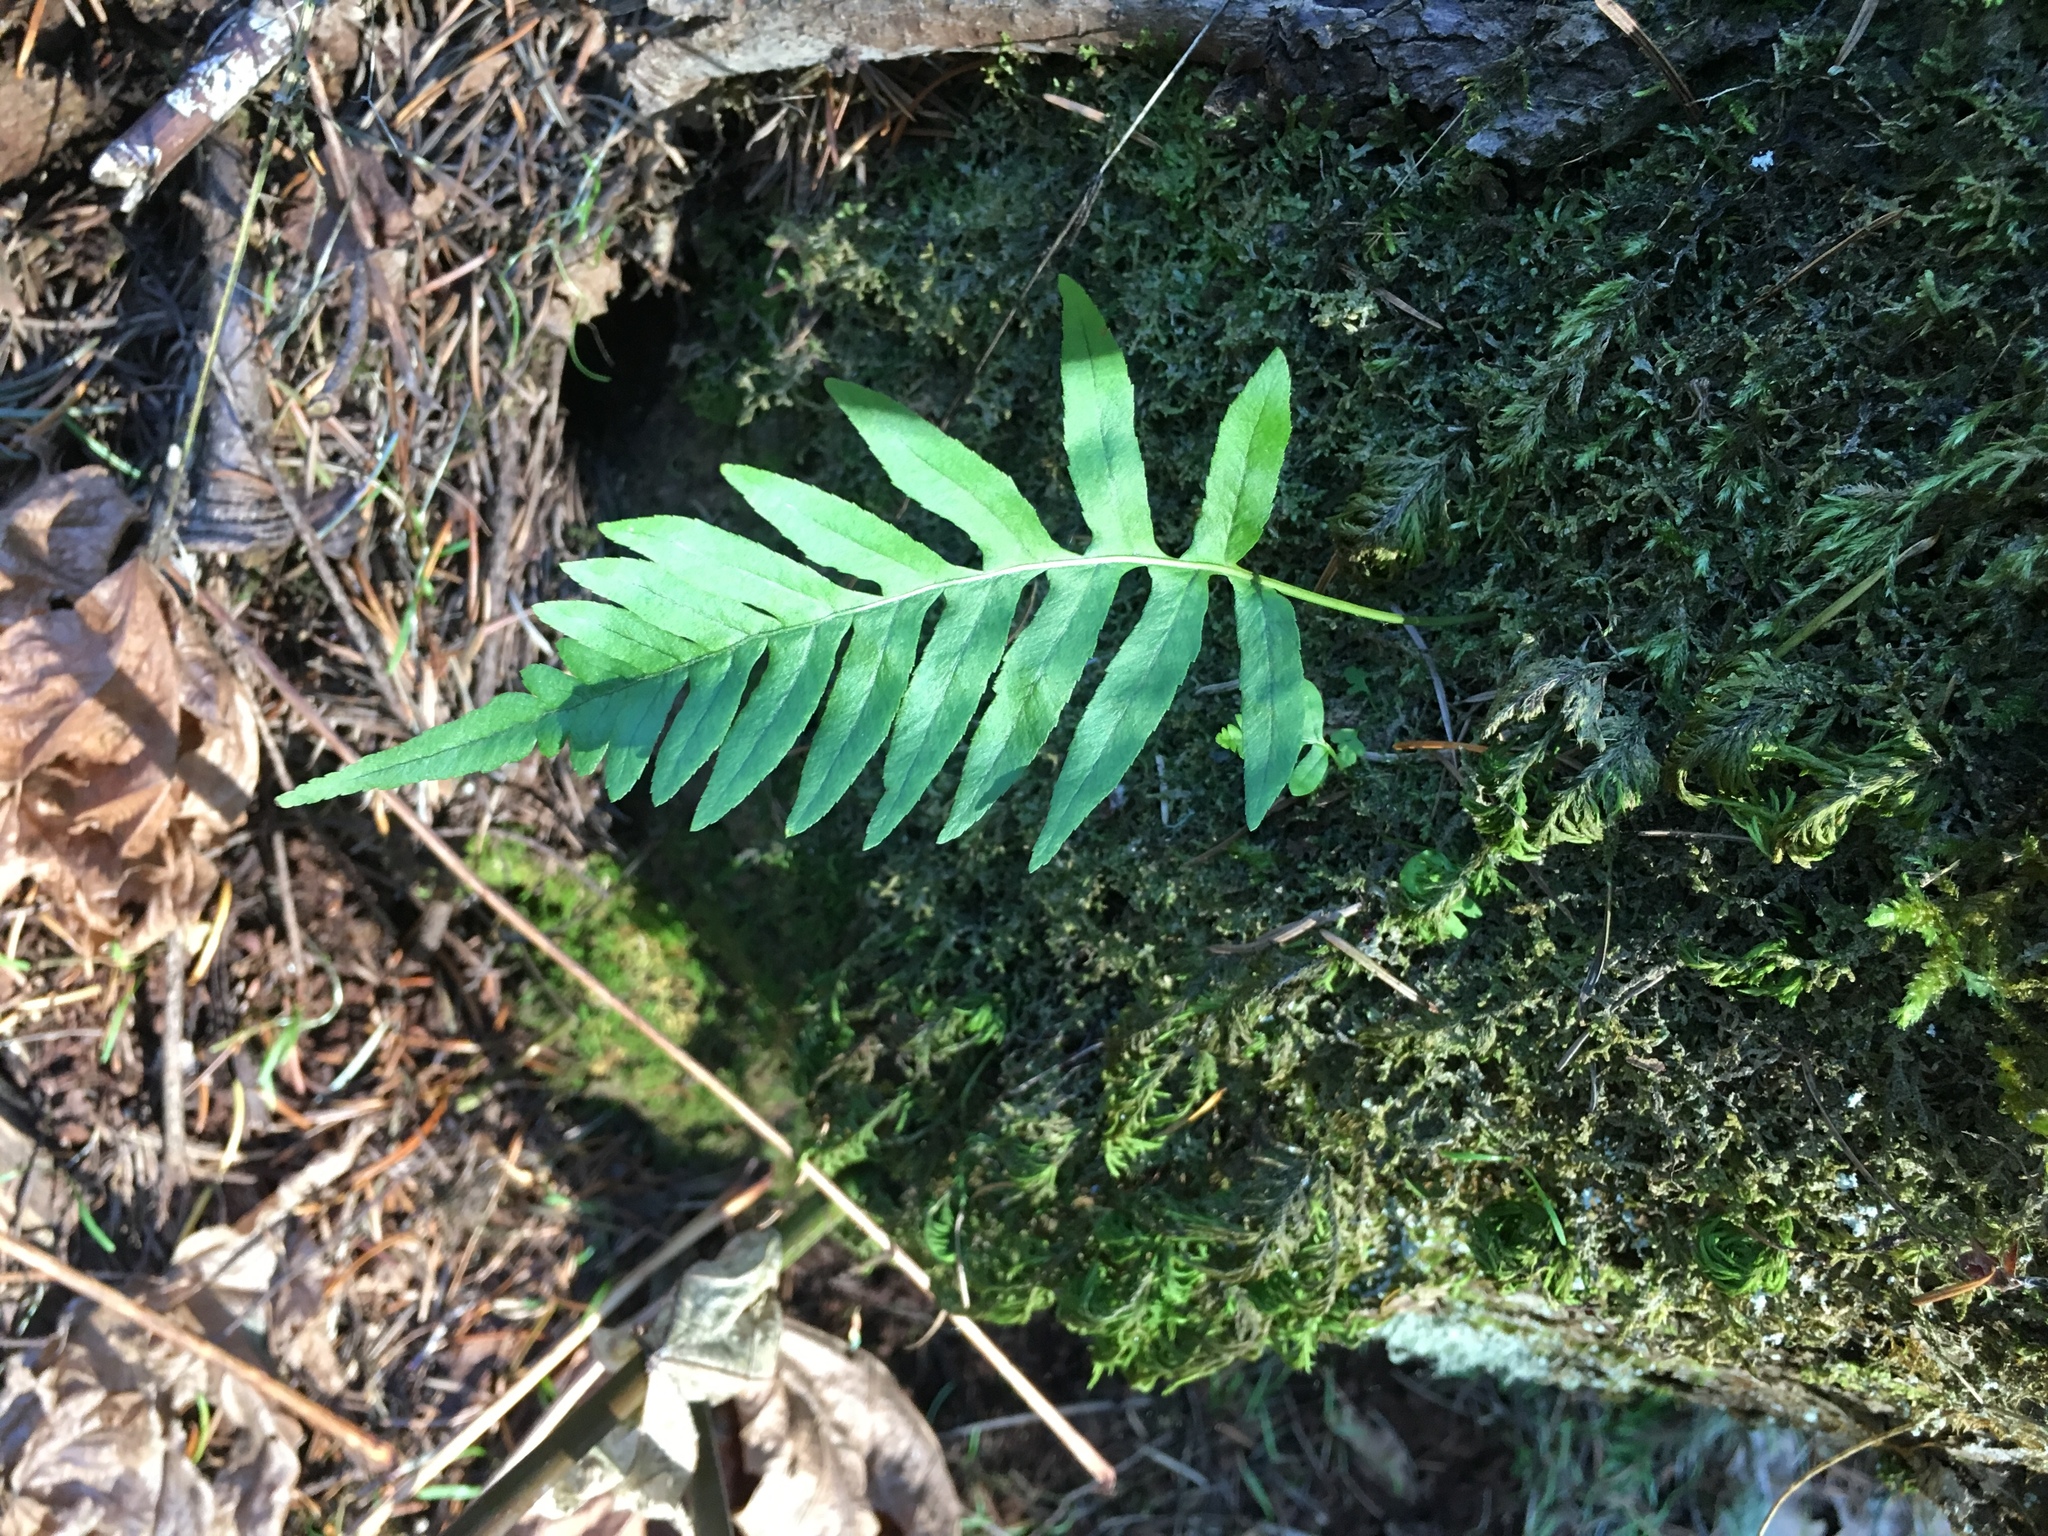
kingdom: Plantae
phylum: Tracheophyta
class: Polypodiopsida
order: Polypodiales
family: Polypodiaceae
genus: Polypodium
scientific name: Polypodium glycyrrhiza
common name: Licorice fern
